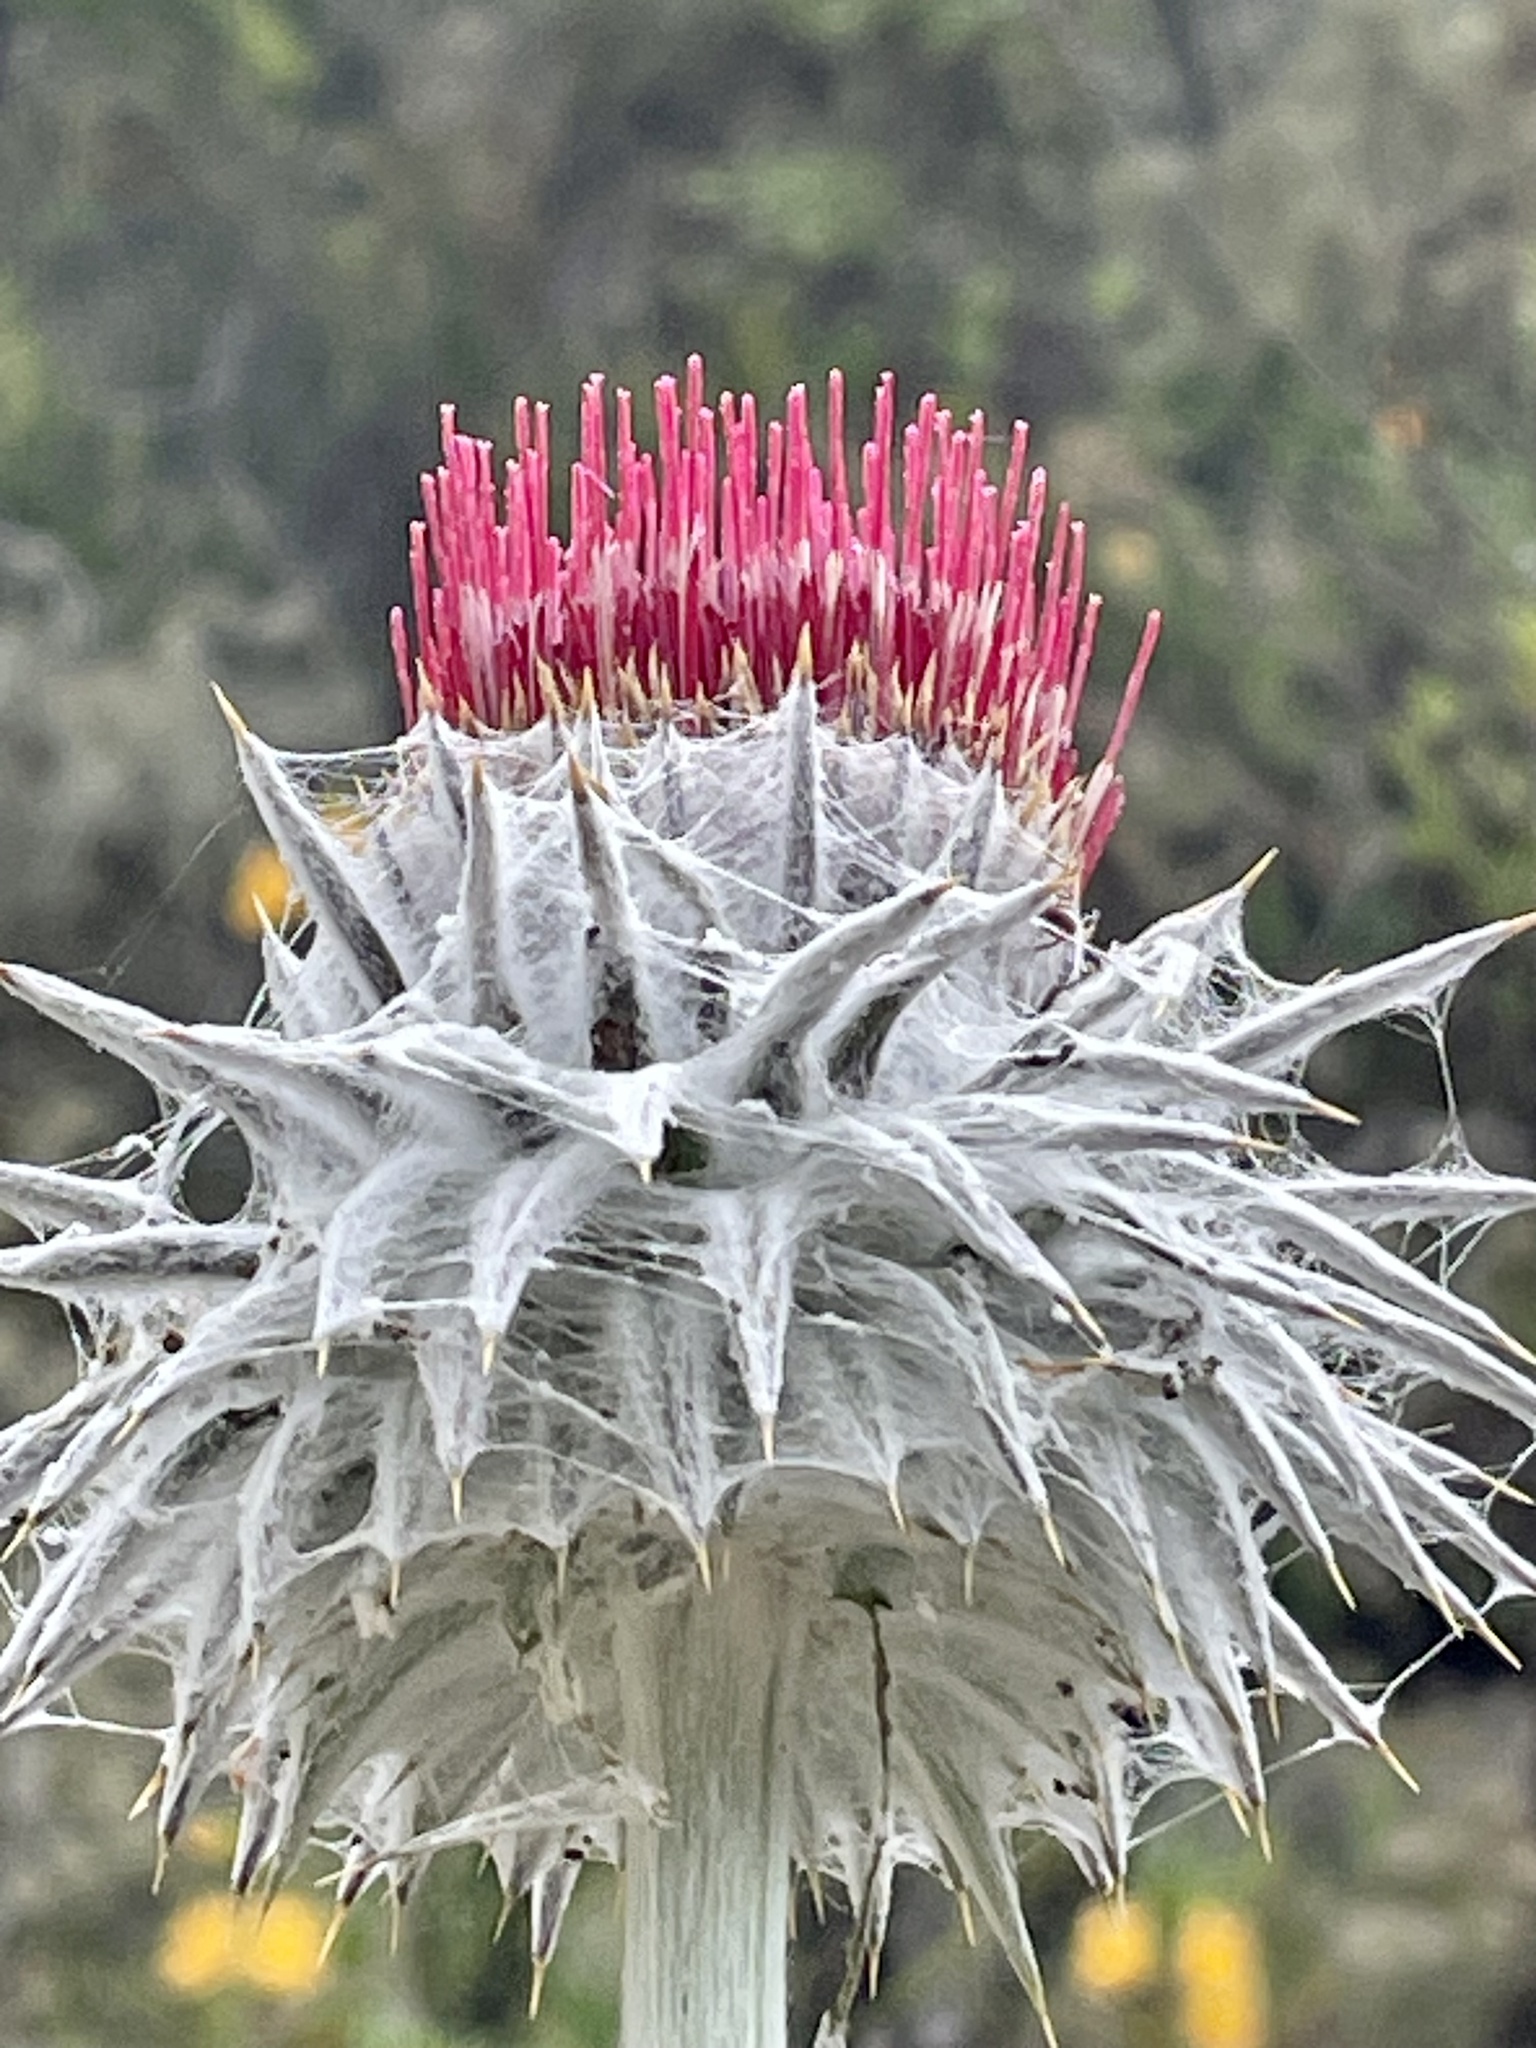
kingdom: Plantae
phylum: Tracheophyta
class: Magnoliopsida
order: Asterales
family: Asteraceae
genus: Cirsium
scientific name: Cirsium occidentale
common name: Western thistle
